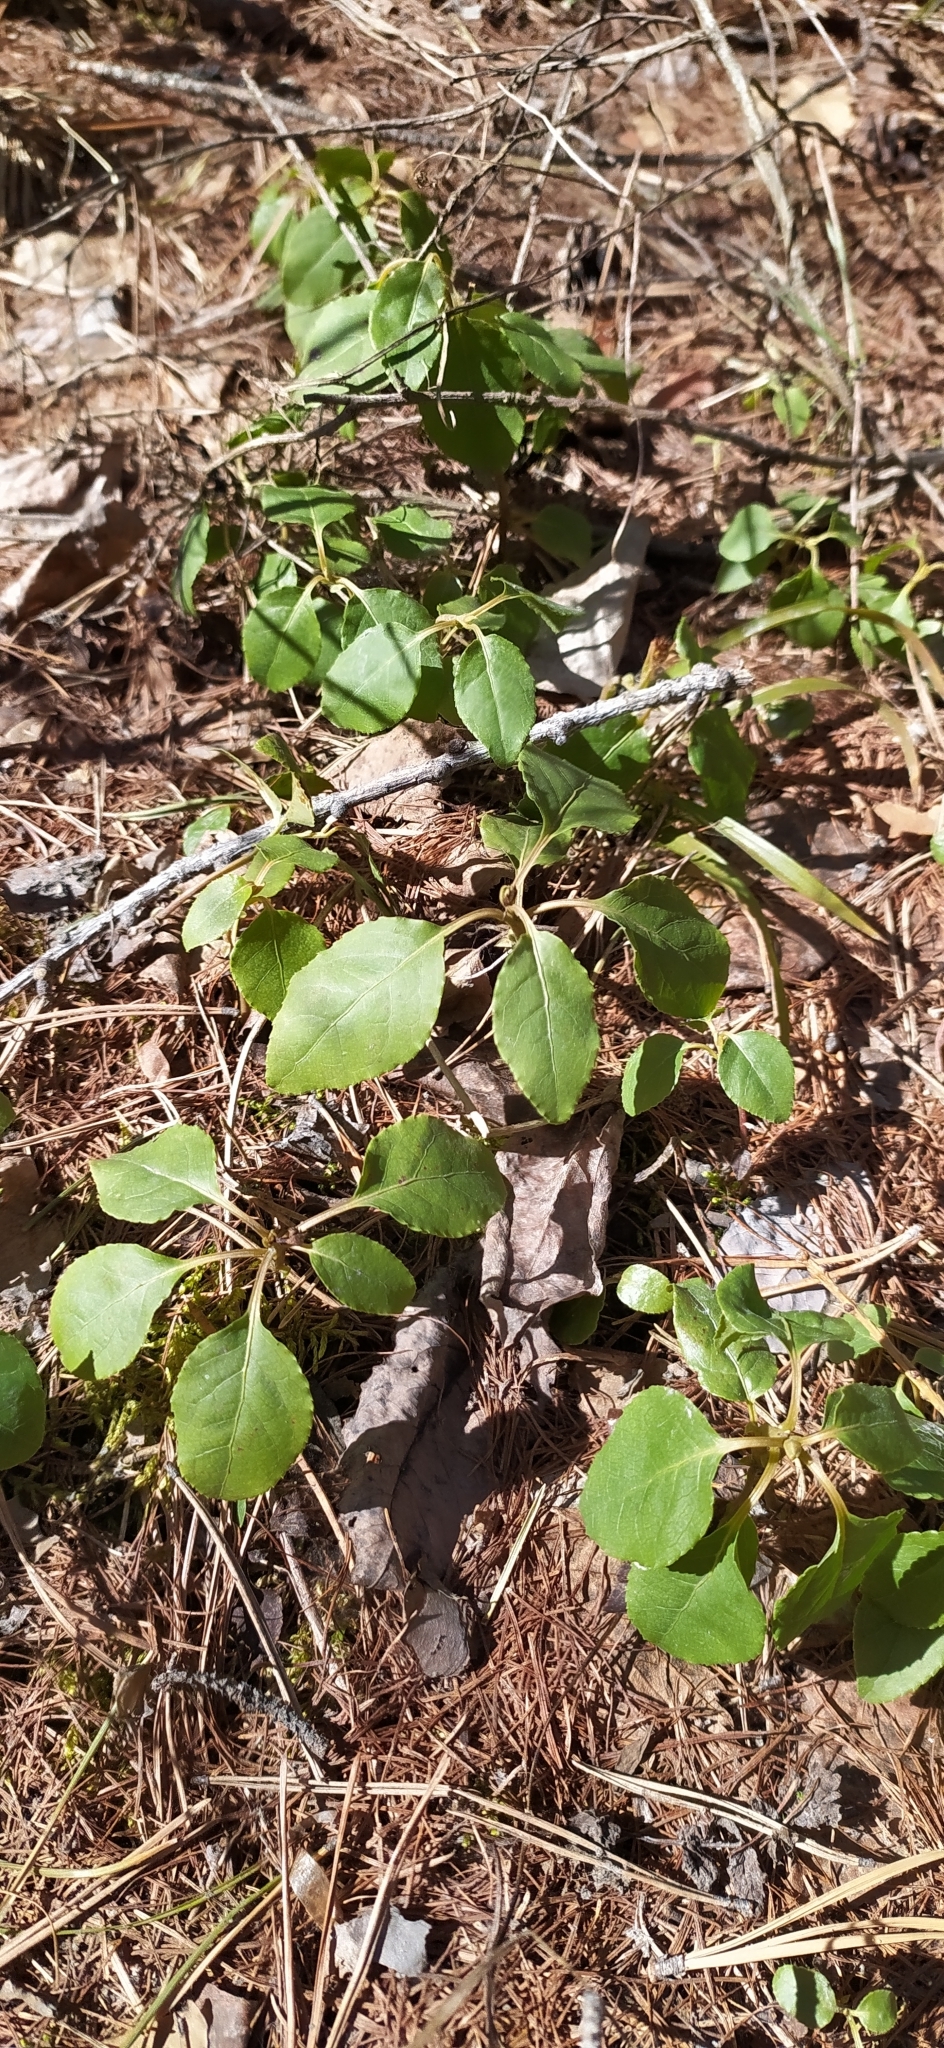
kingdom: Plantae
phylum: Tracheophyta
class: Magnoliopsida
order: Ericales
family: Ericaceae
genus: Orthilia
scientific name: Orthilia secunda
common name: One-sided orthilia
